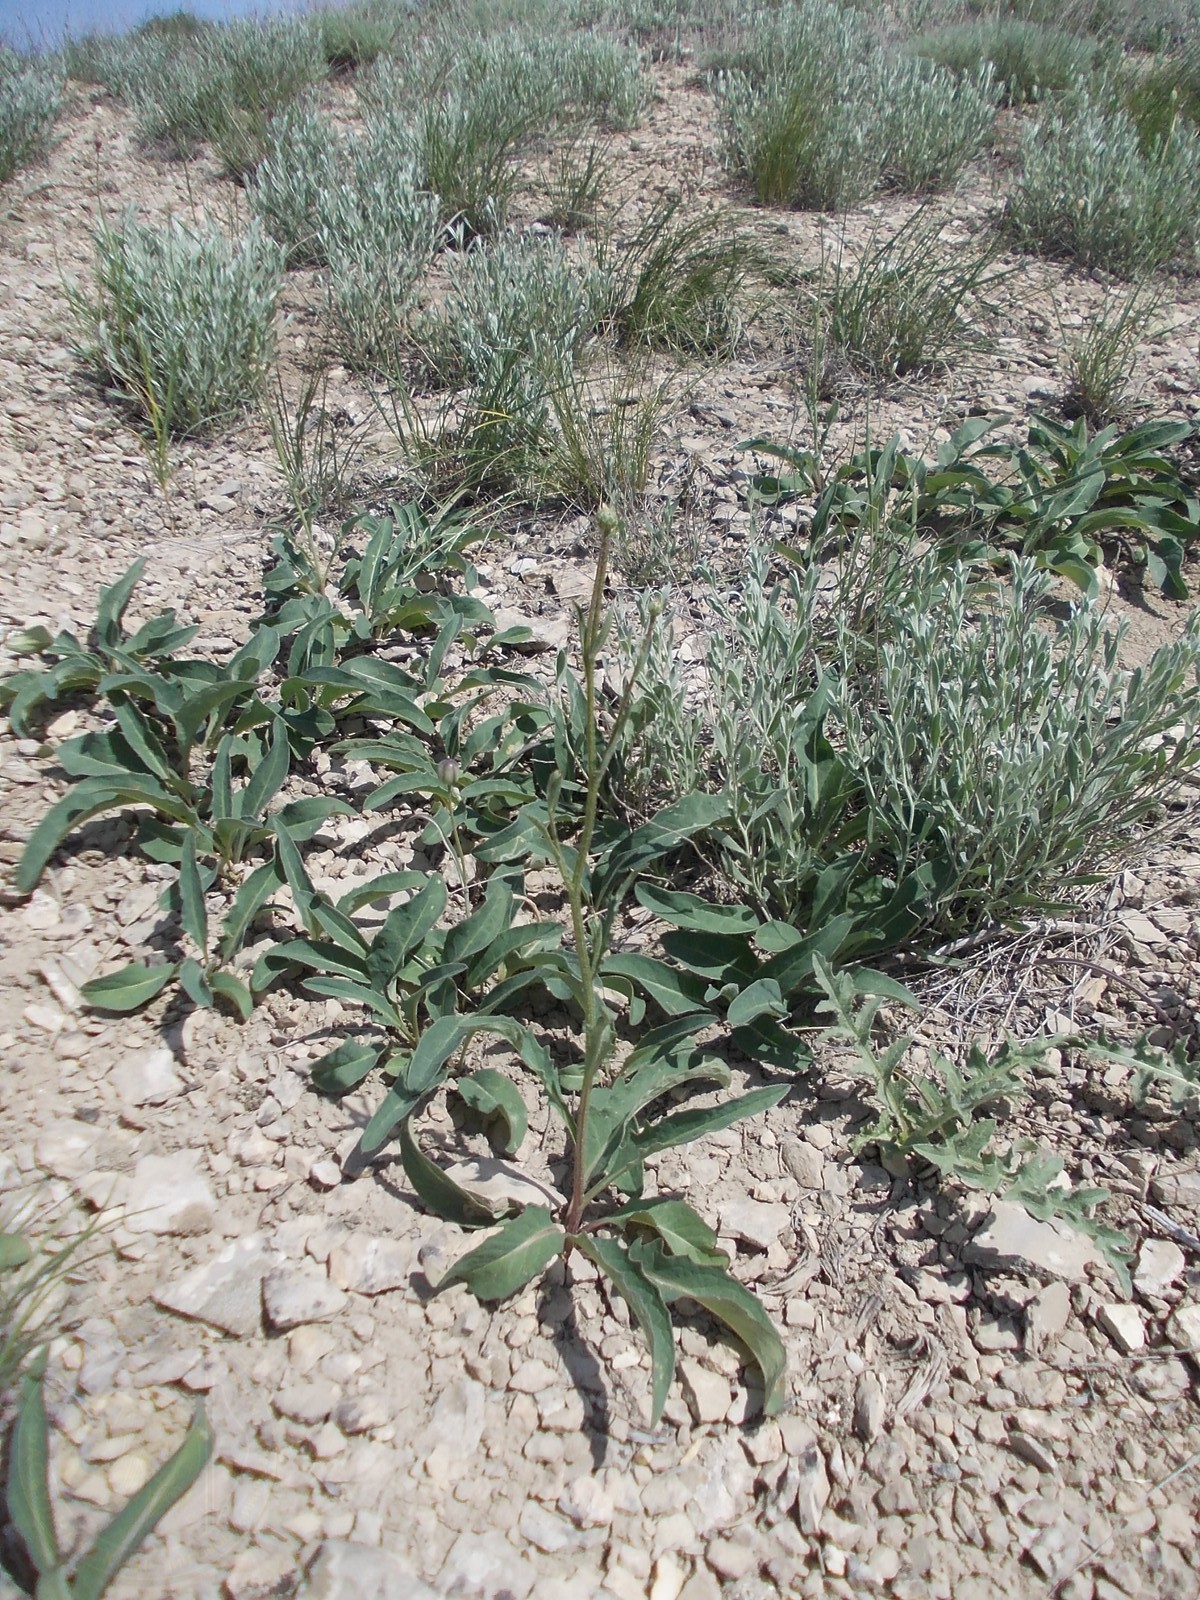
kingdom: Plantae
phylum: Tracheophyta
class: Magnoliopsida
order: Asterales
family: Asteraceae
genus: Klasea
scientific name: Klasea cardunculus
